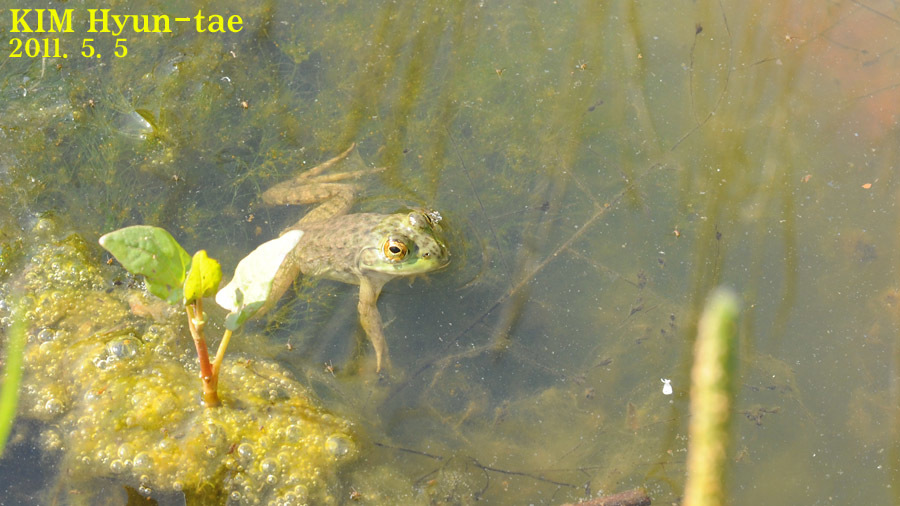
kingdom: Animalia
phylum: Chordata
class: Amphibia
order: Anura
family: Ranidae
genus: Lithobates
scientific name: Lithobates catesbeianus
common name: American bullfrog
